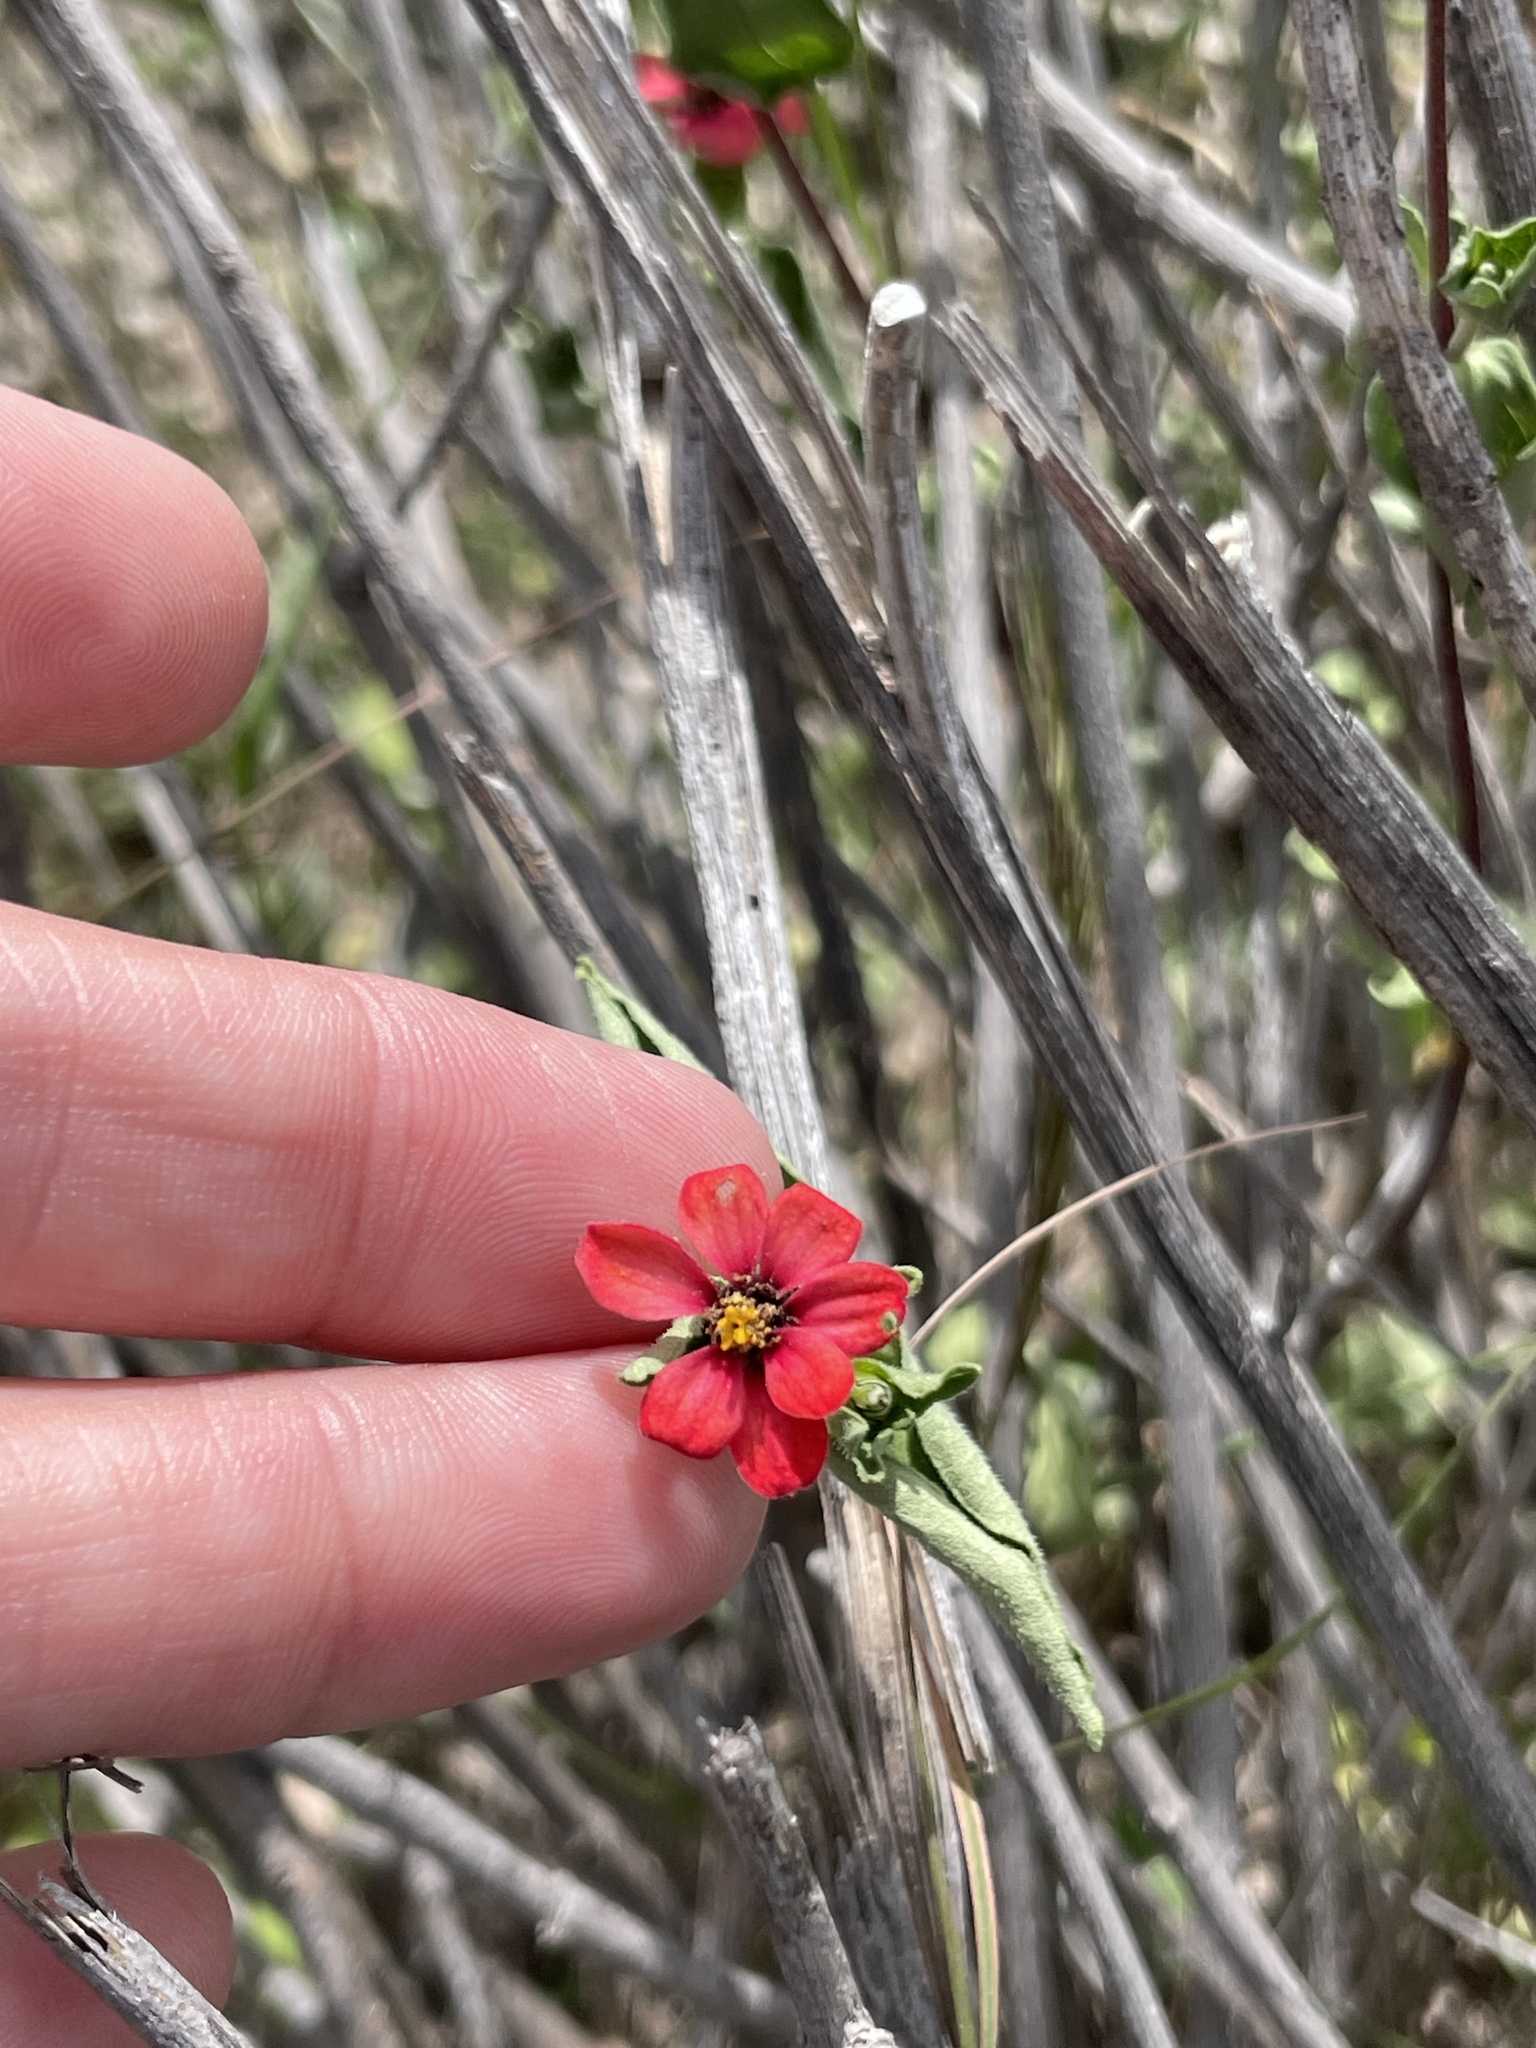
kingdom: Plantae
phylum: Tracheophyta
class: Magnoliopsida
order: Asterales
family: Asteraceae
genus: Zinnia
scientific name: Zinnia peruviana
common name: Peruvian zinnia
